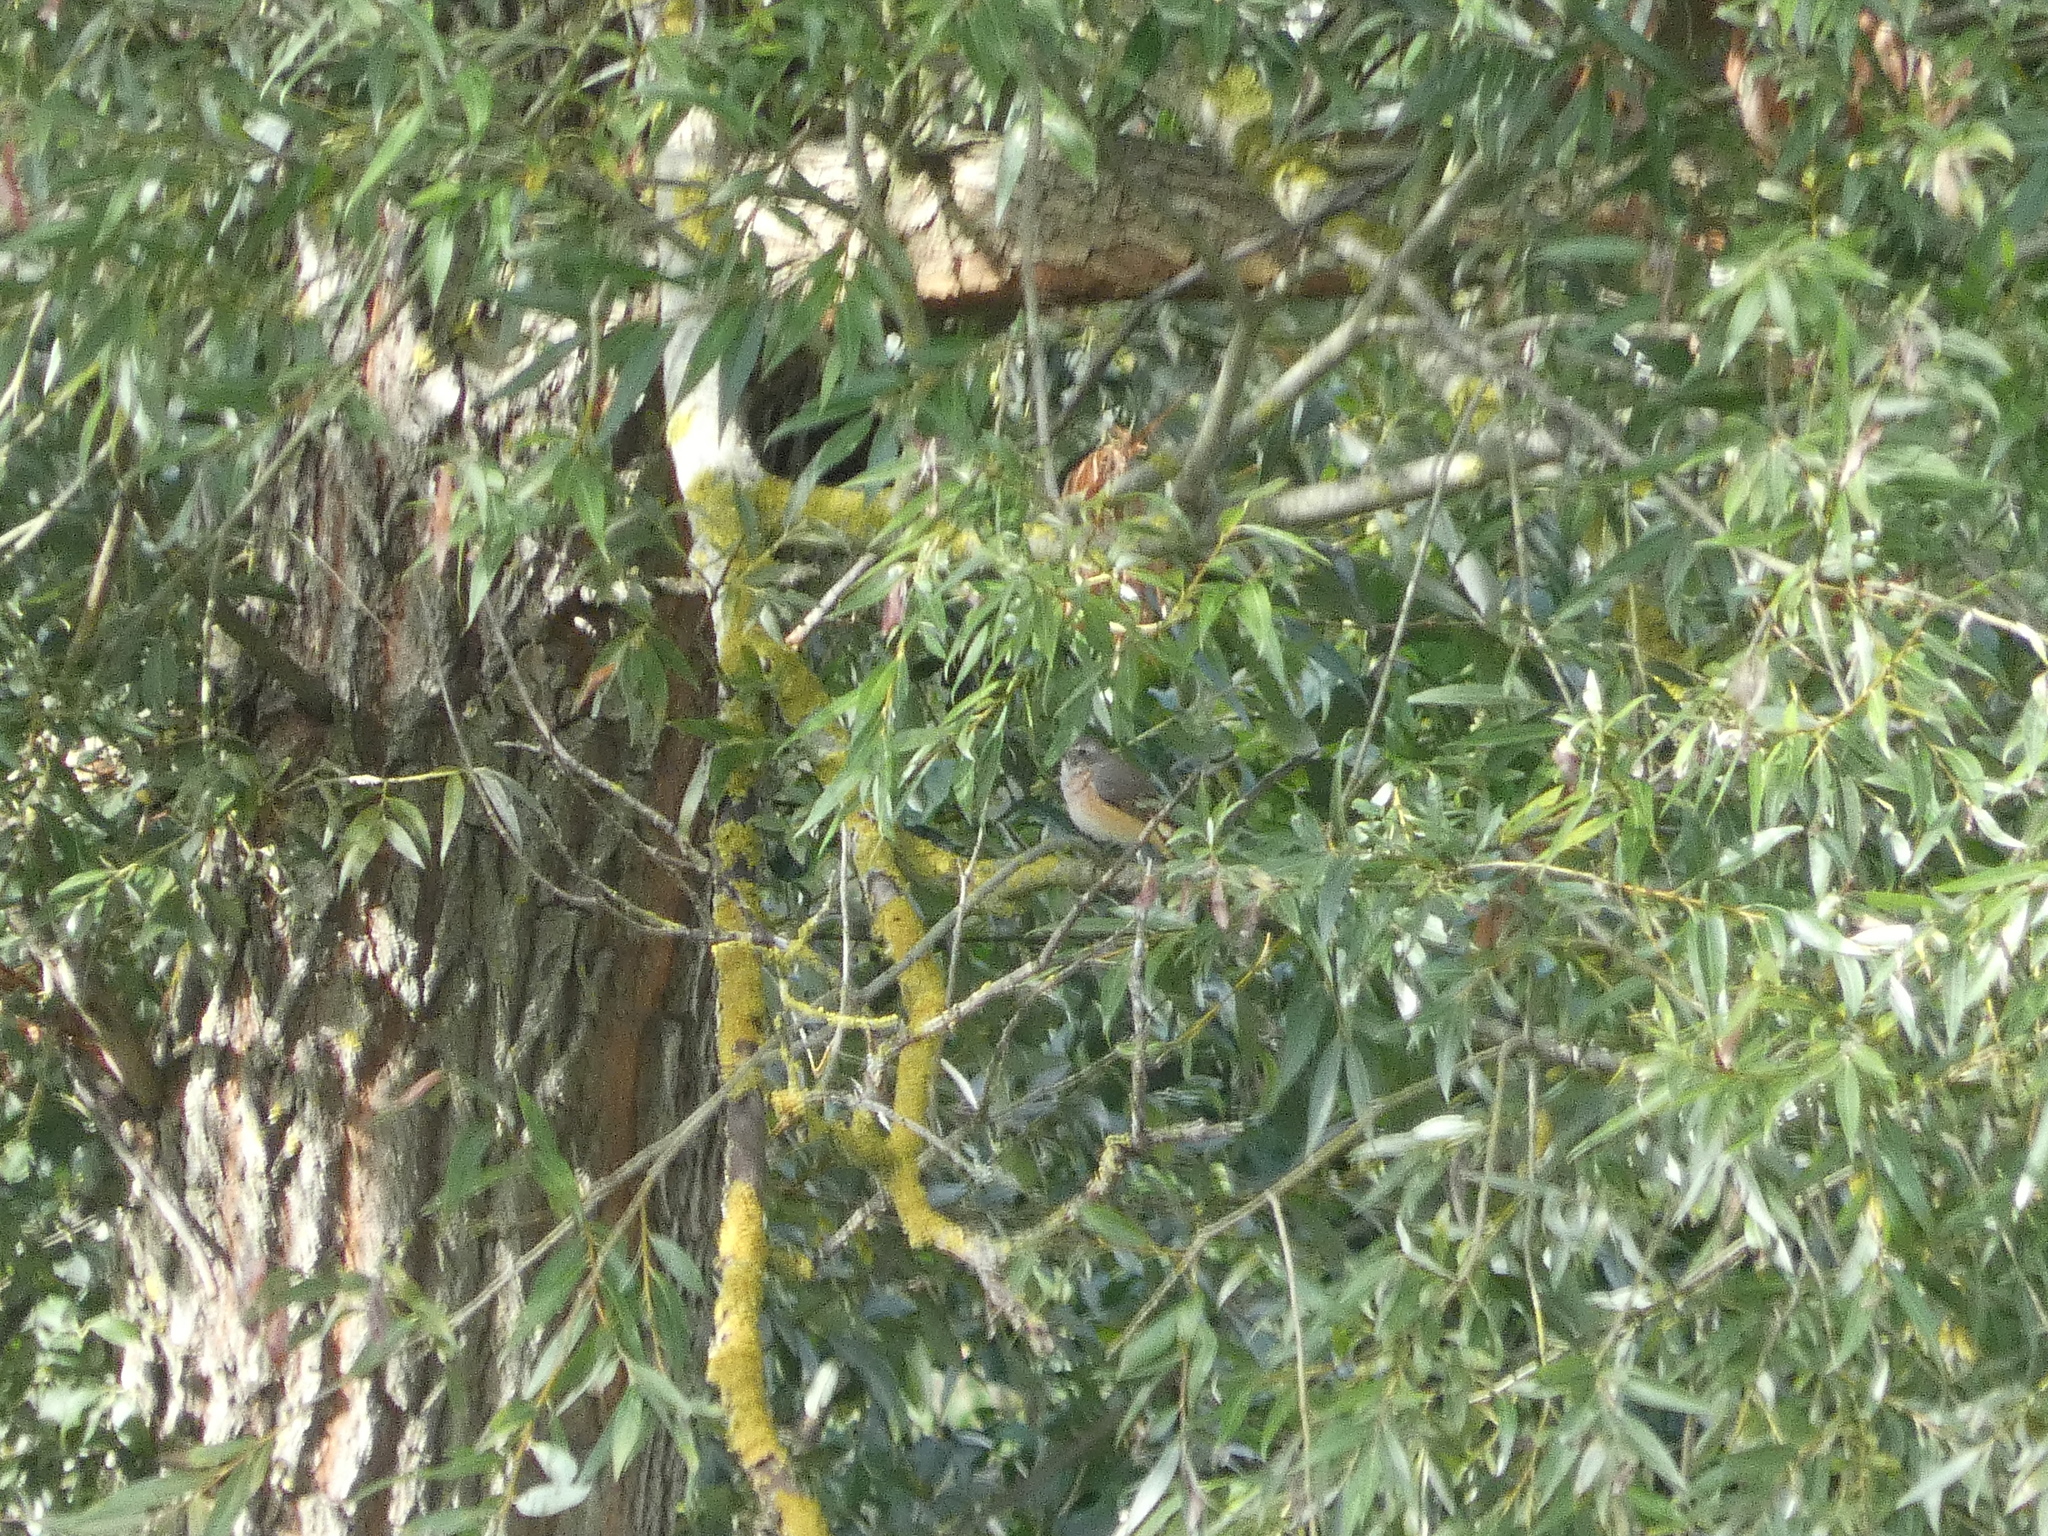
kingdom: Animalia
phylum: Chordata
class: Aves
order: Passeriformes
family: Muscicapidae
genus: Phoenicurus
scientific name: Phoenicurus phoenicurus
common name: Common redstart
